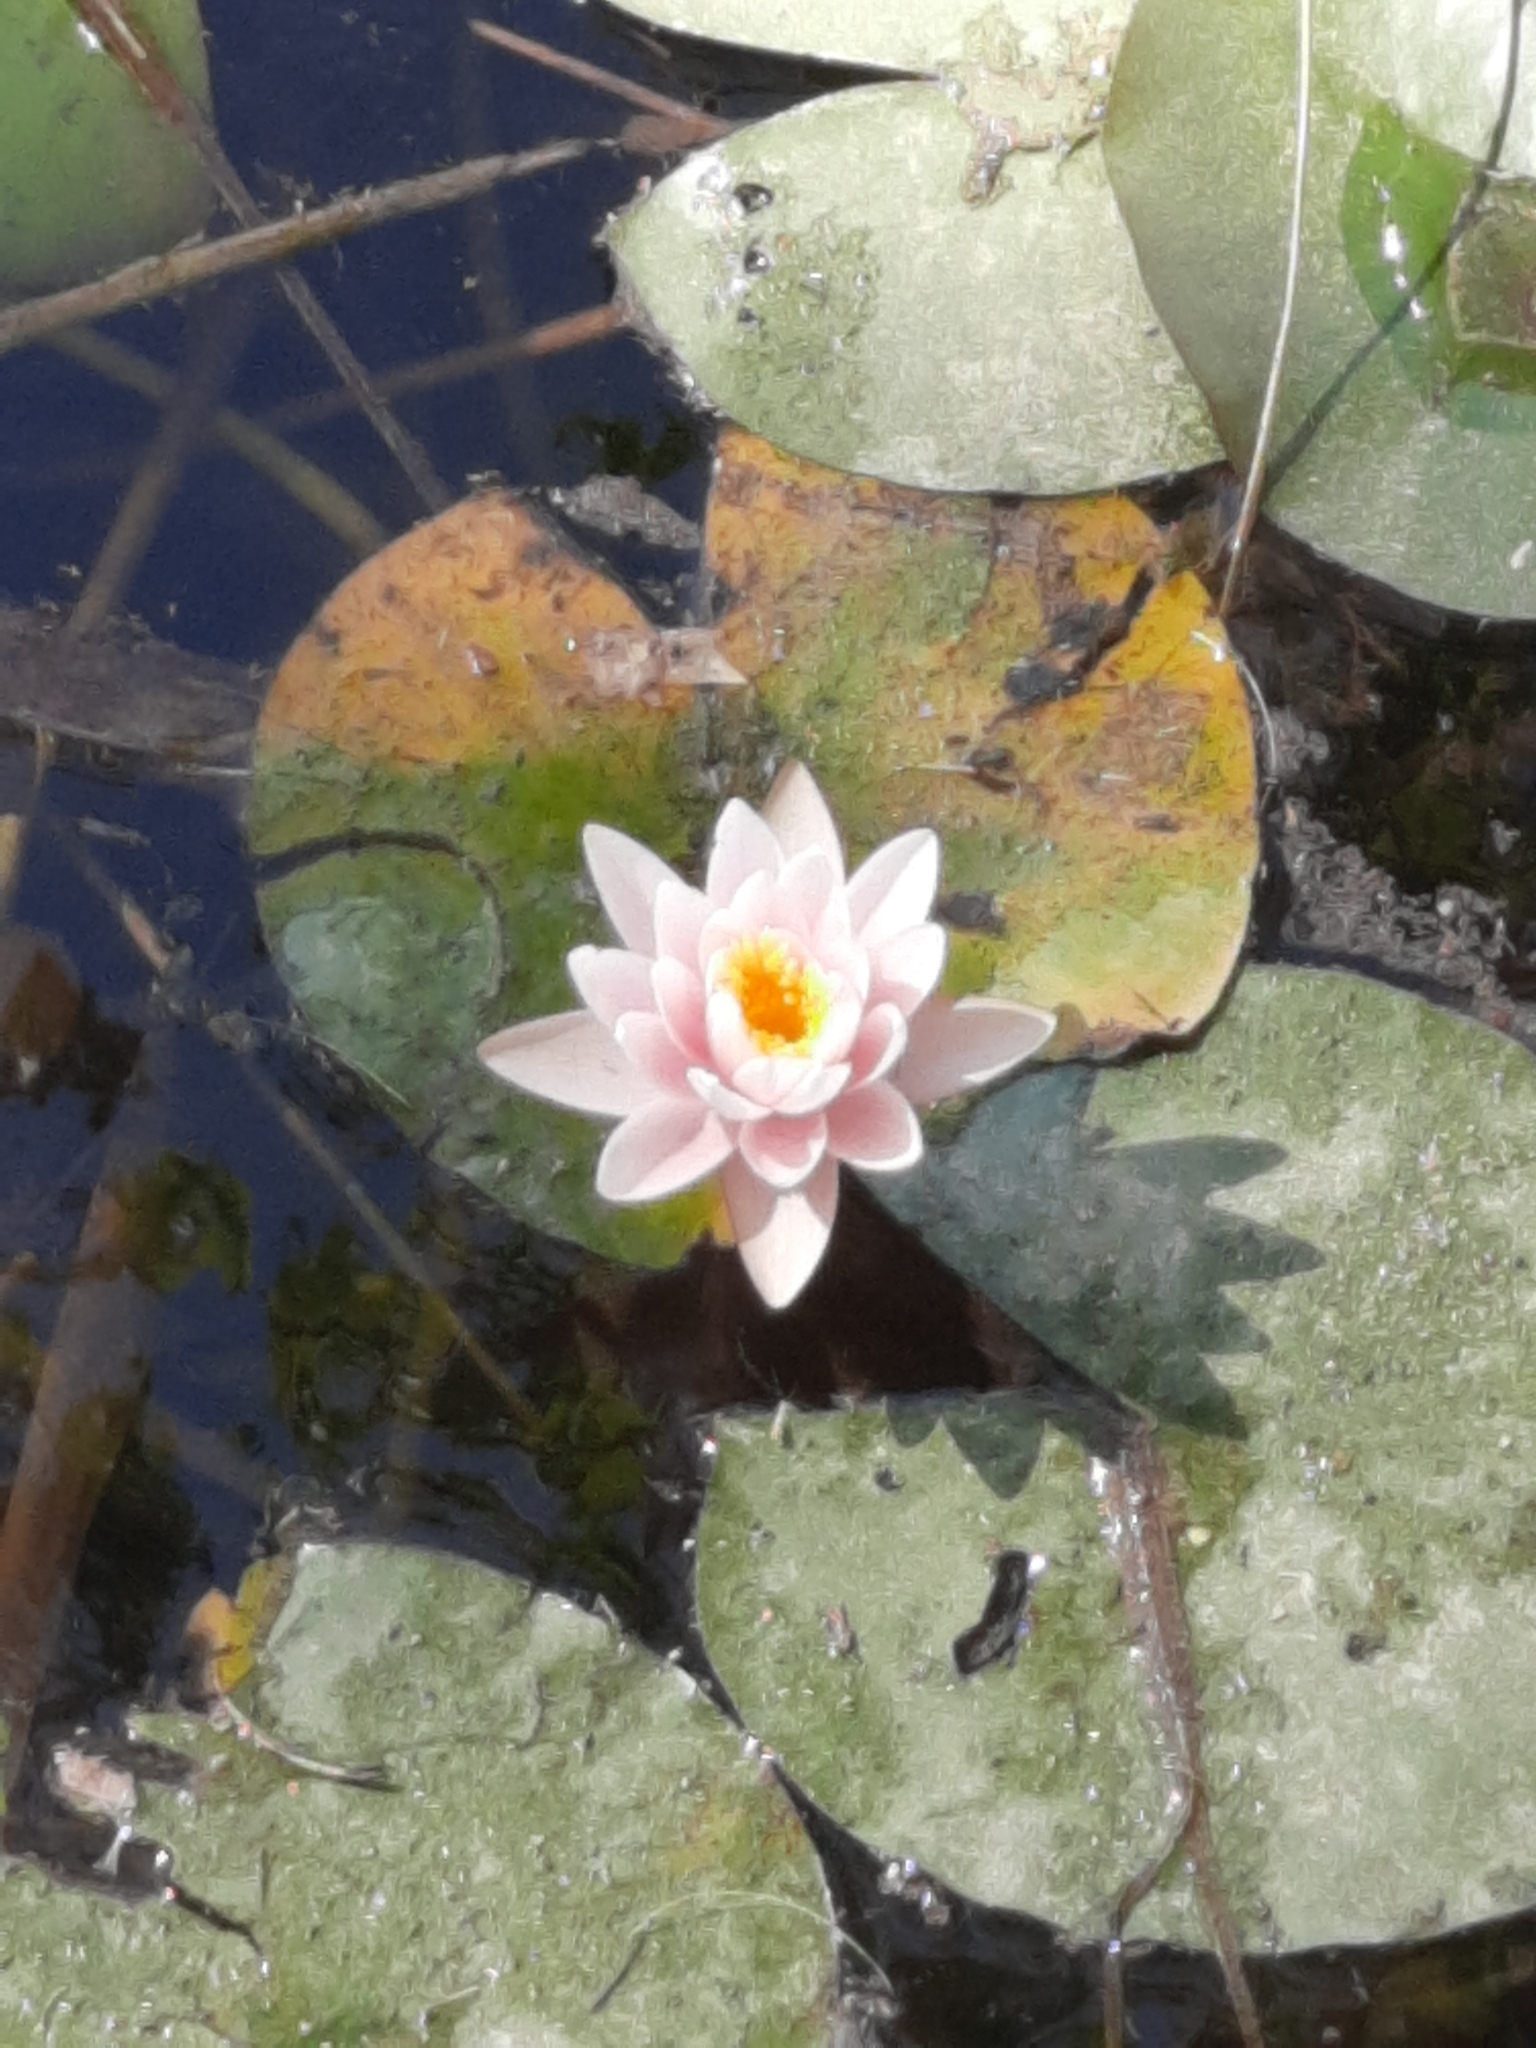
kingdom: Plantae
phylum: Tracheophyta
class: Magnoliopsida
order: Nymphaeales
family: Nymphaeaceae
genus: Nymphaea
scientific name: Nymphaea alba
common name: White water-lily
